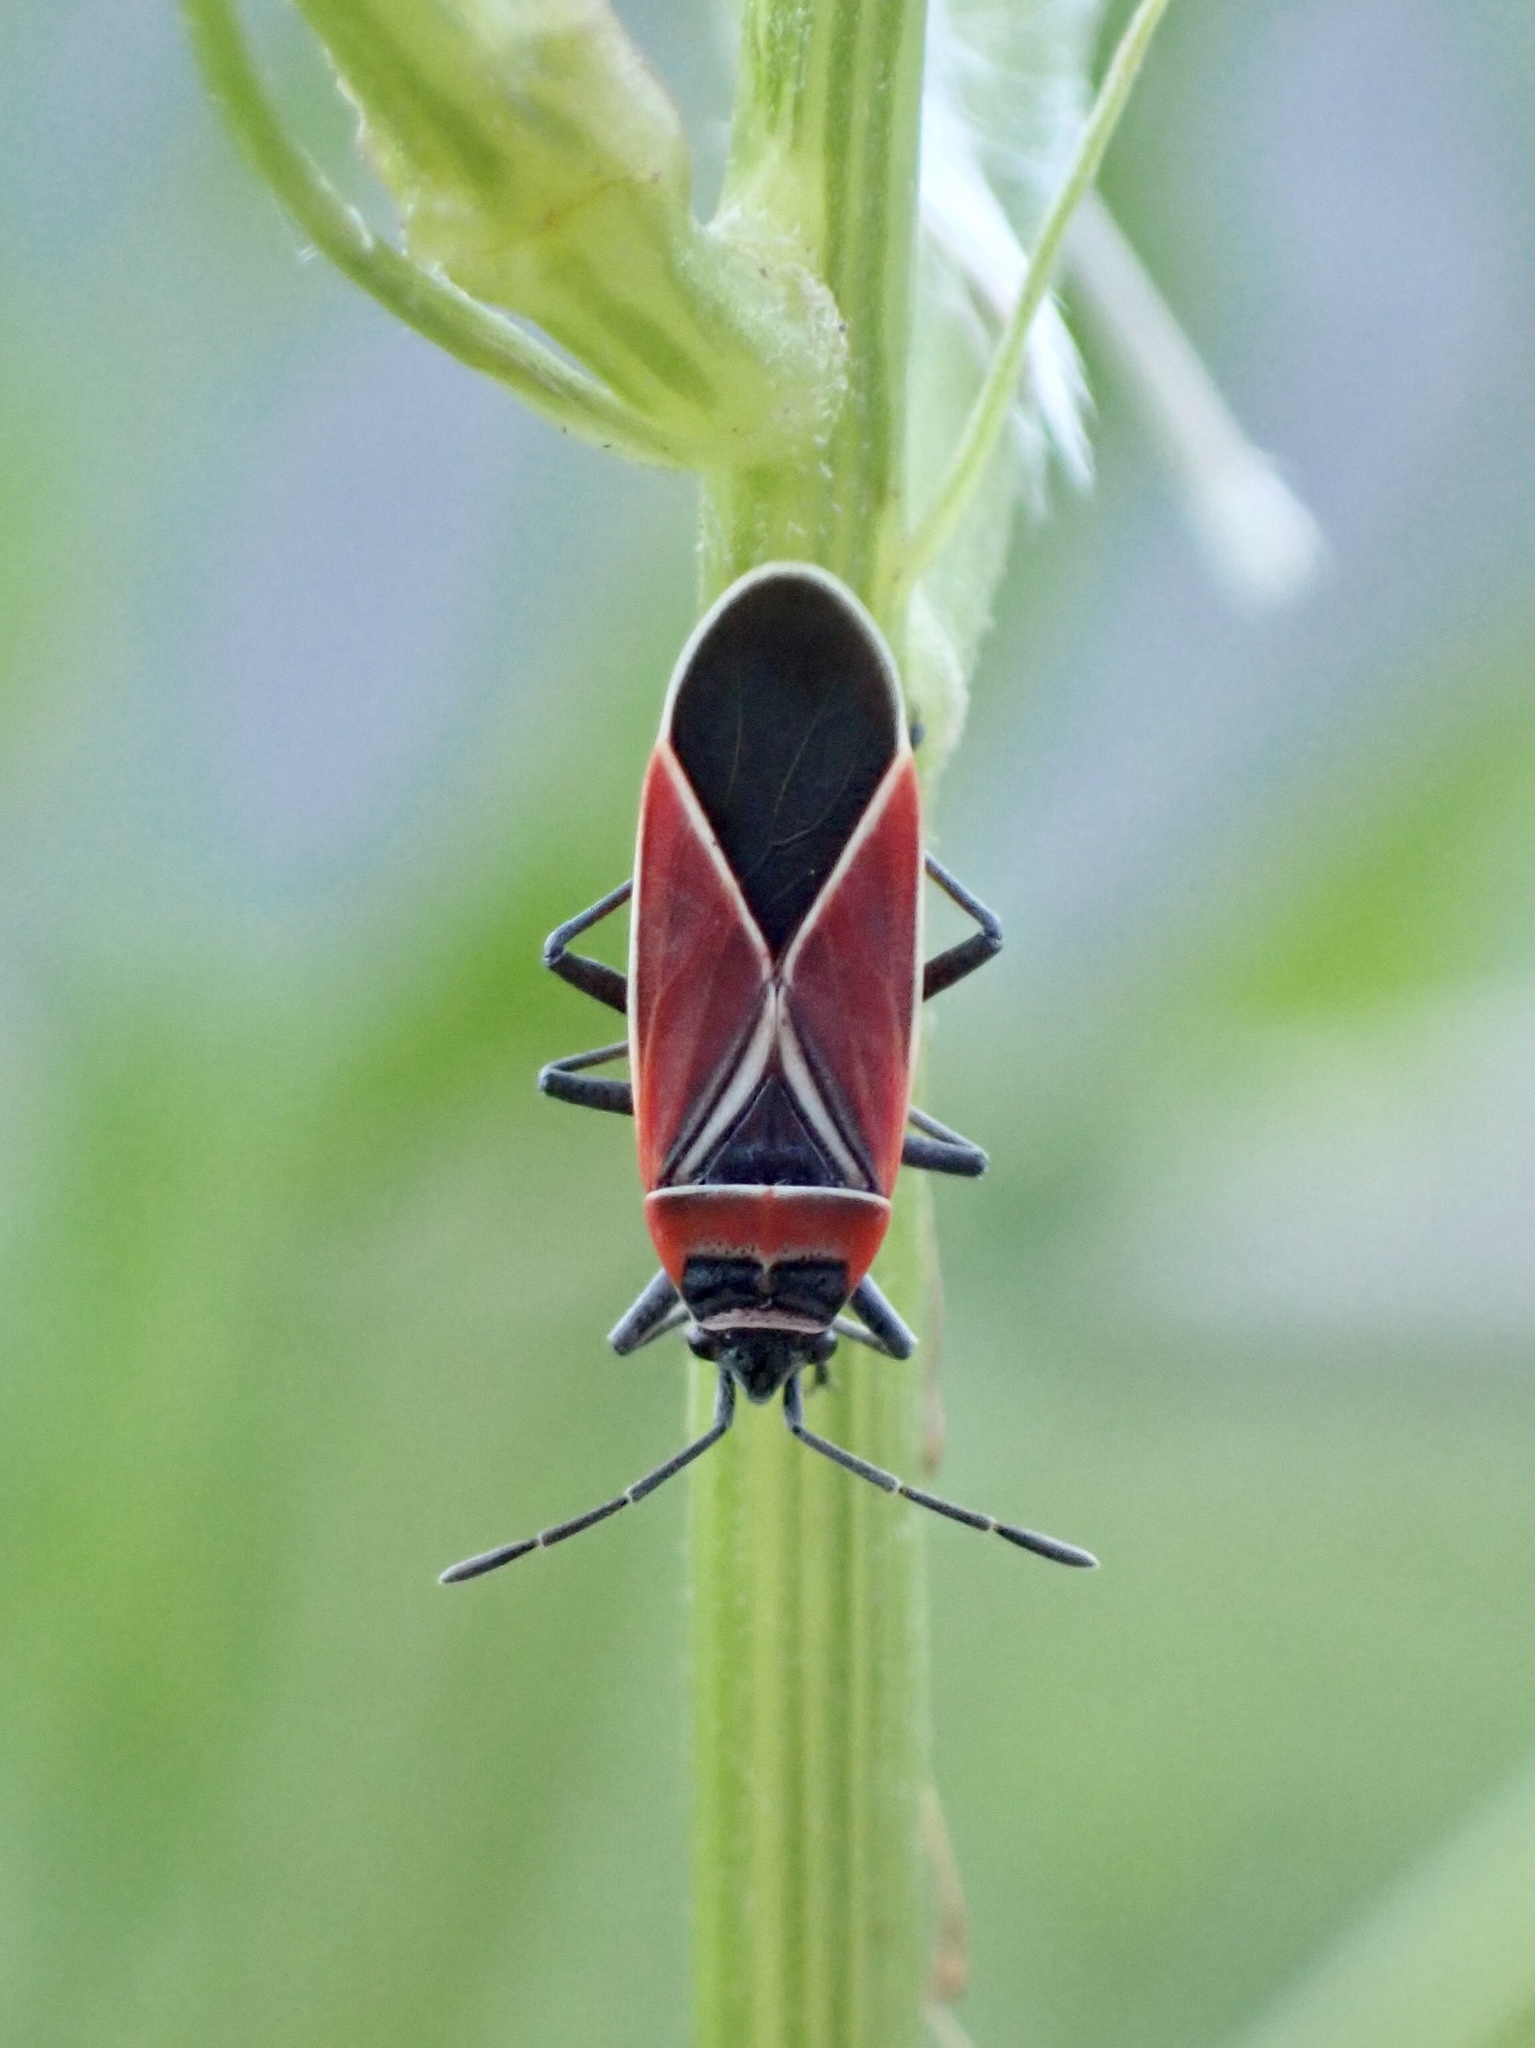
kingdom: Animalia
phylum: Arthropoda
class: Insecta
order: Hemiptera
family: Lygaeidae
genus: Neacoryphus
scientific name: Neacoryphus bicrucis
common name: Lygaeid bug
